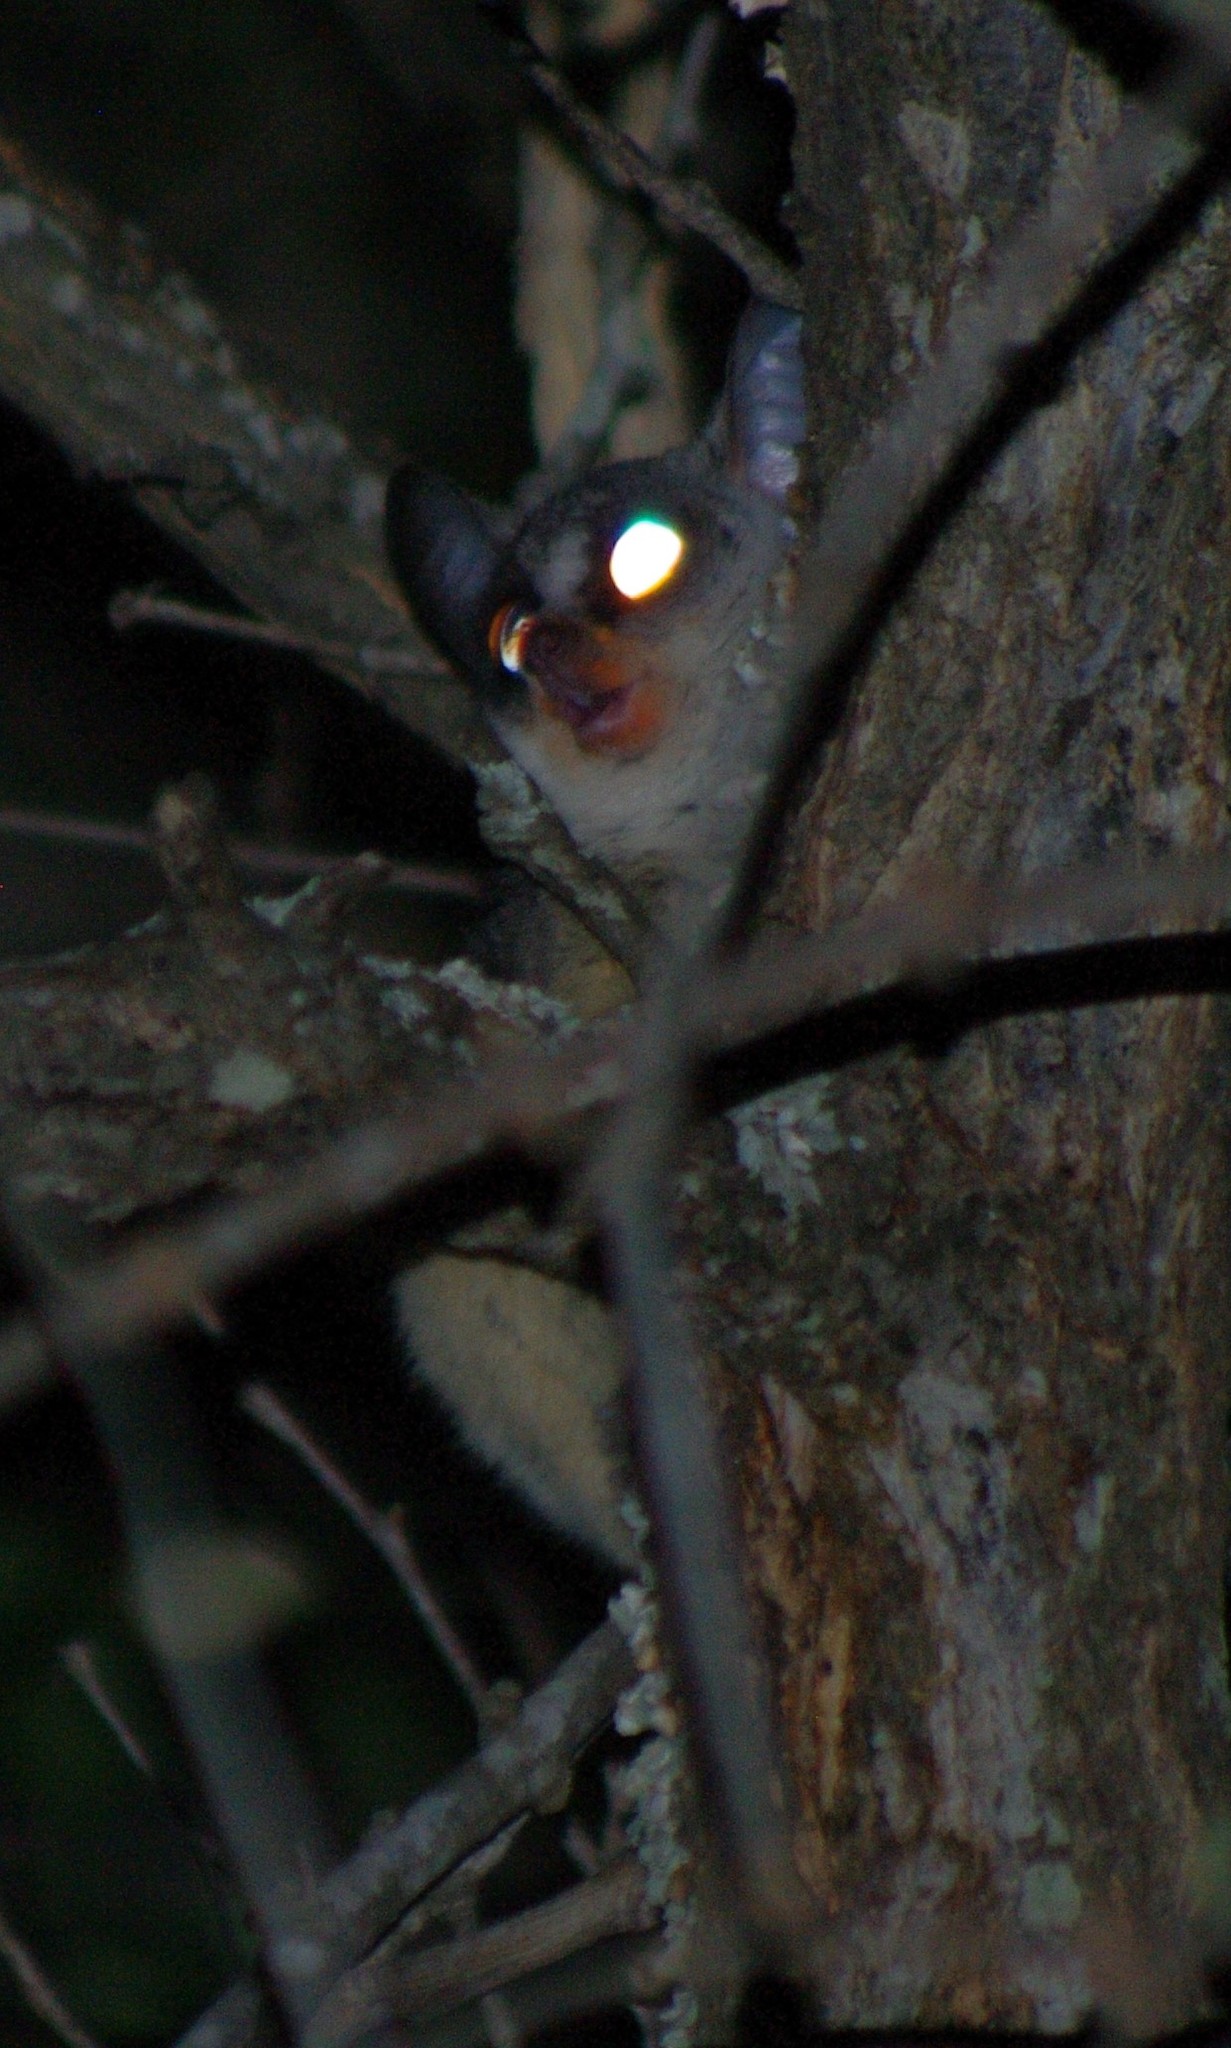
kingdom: Animalia
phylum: Chordata
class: Mammalia
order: Primates
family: Galagidae
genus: Galago
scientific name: Galago moholi
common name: Moholi bushbaby
